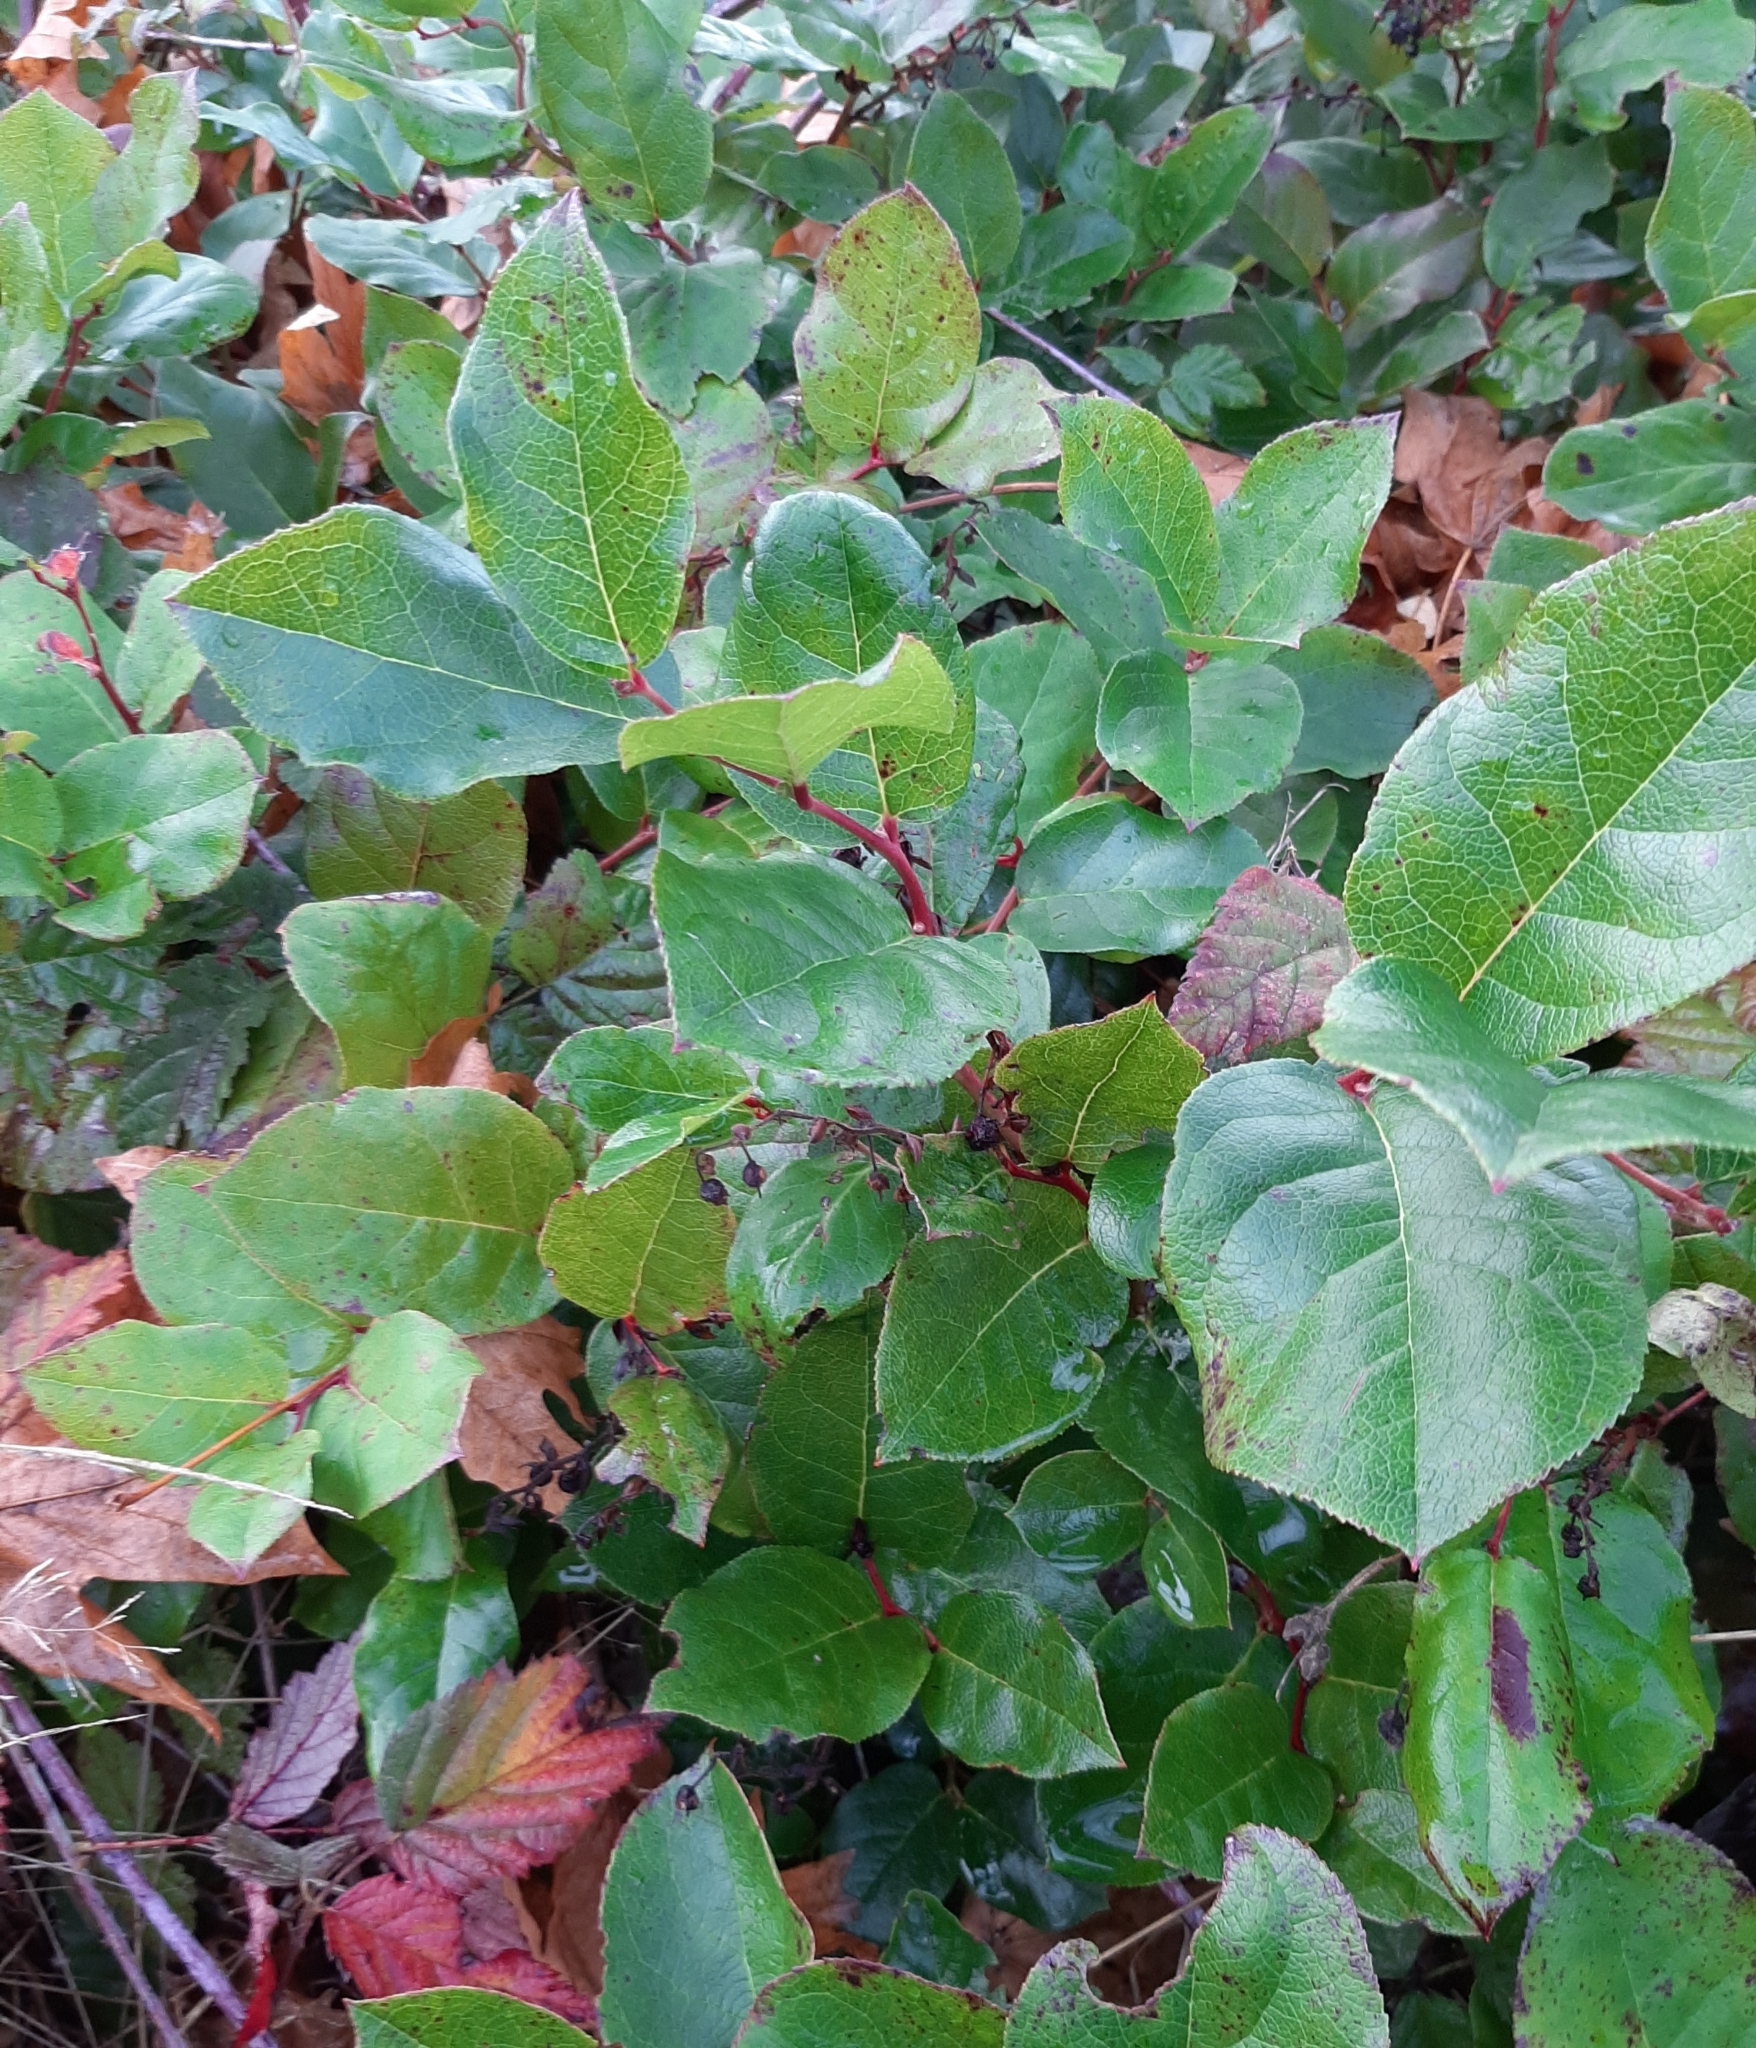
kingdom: Plantae
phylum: Tracheophyta
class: Magnoliopsida
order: Ericales
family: Ericaceae
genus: Gaultheria
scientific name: Gaultheria shallon
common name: Shallon
